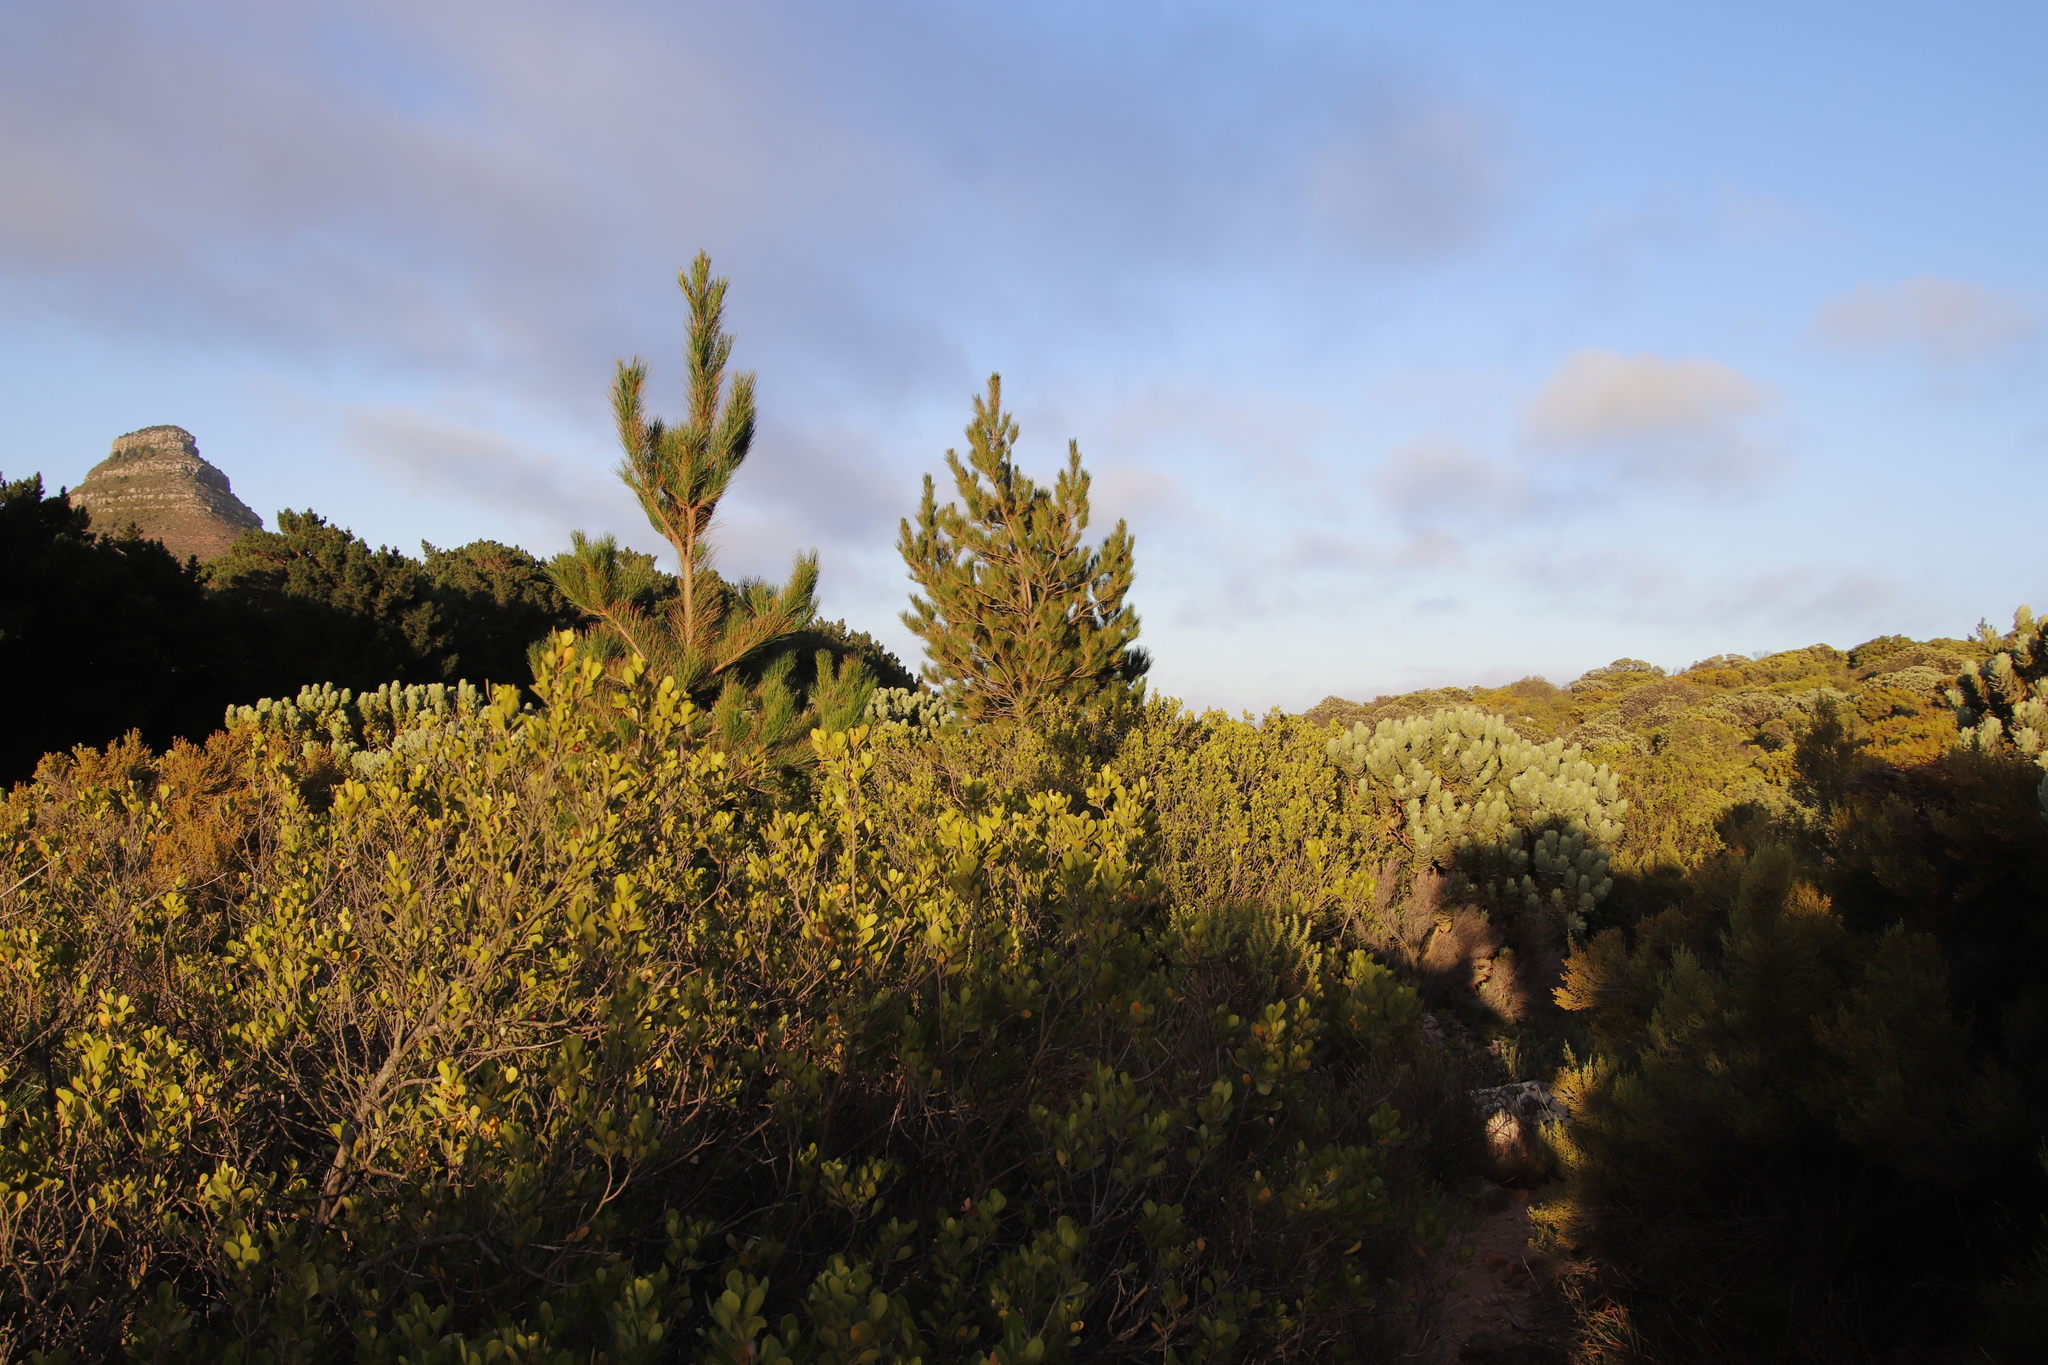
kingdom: Plantae
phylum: Tracheophyta
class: Pinopsida
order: Pinales
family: Pinaceae
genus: Pinus
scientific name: Pinus radiata
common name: Monterey pine
